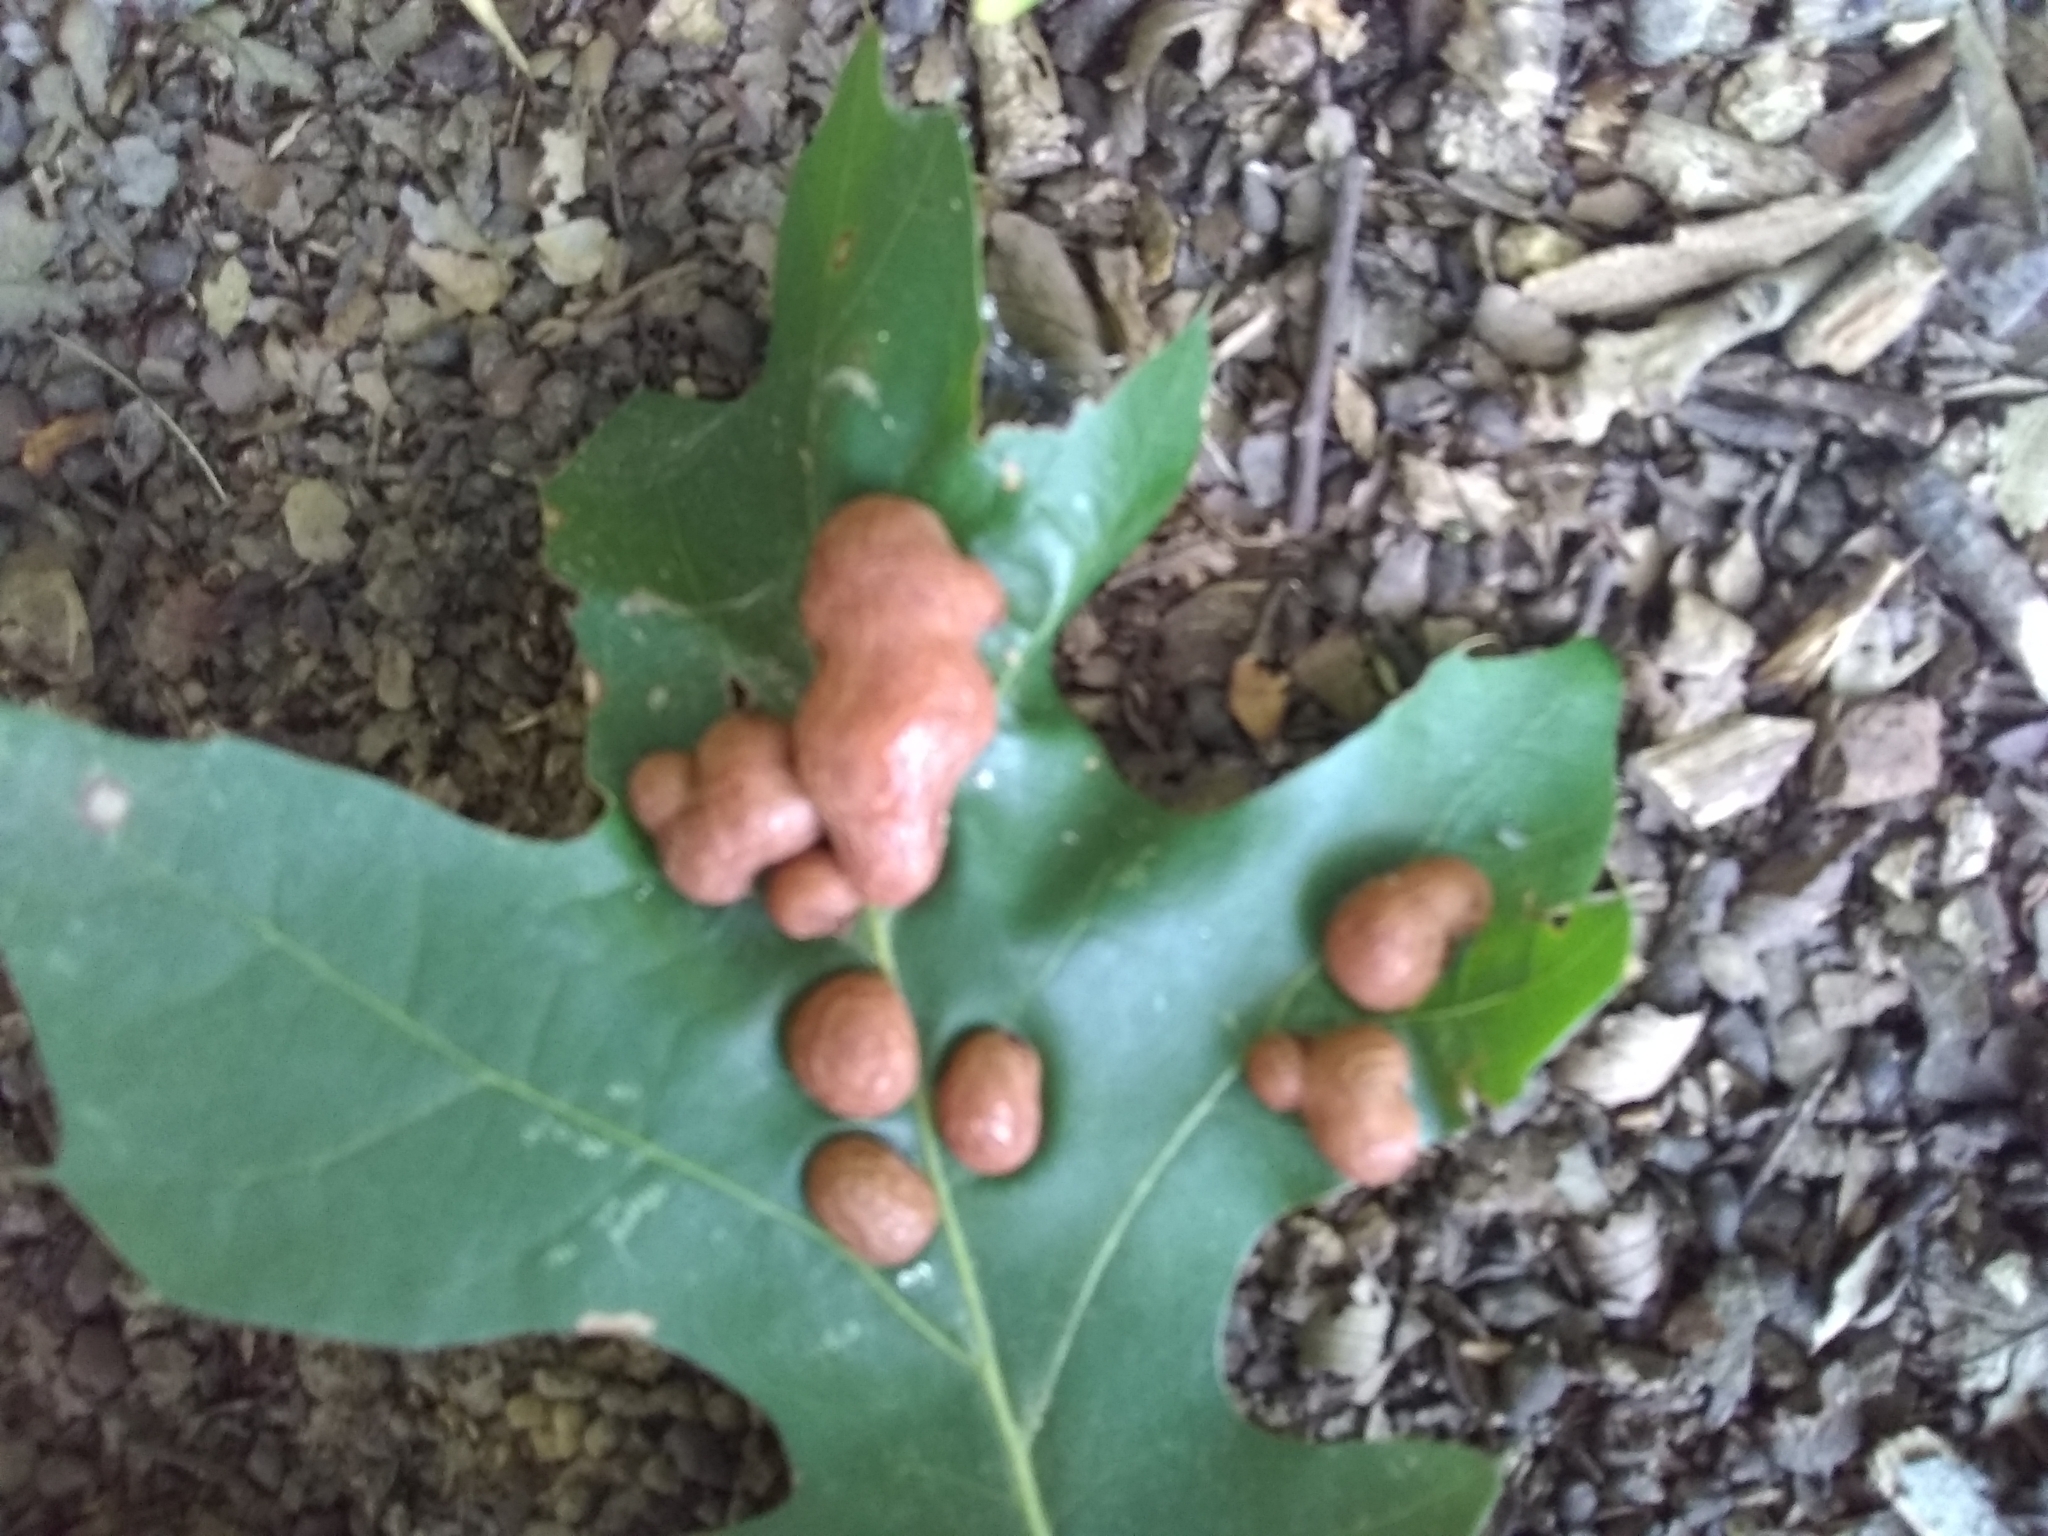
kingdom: Animalia
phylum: Arthropoda
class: Insecta
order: Diptera
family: Cecidomyiidae
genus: Polystepha
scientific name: Polystepha pilulae
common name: Oak leaf gall midge
